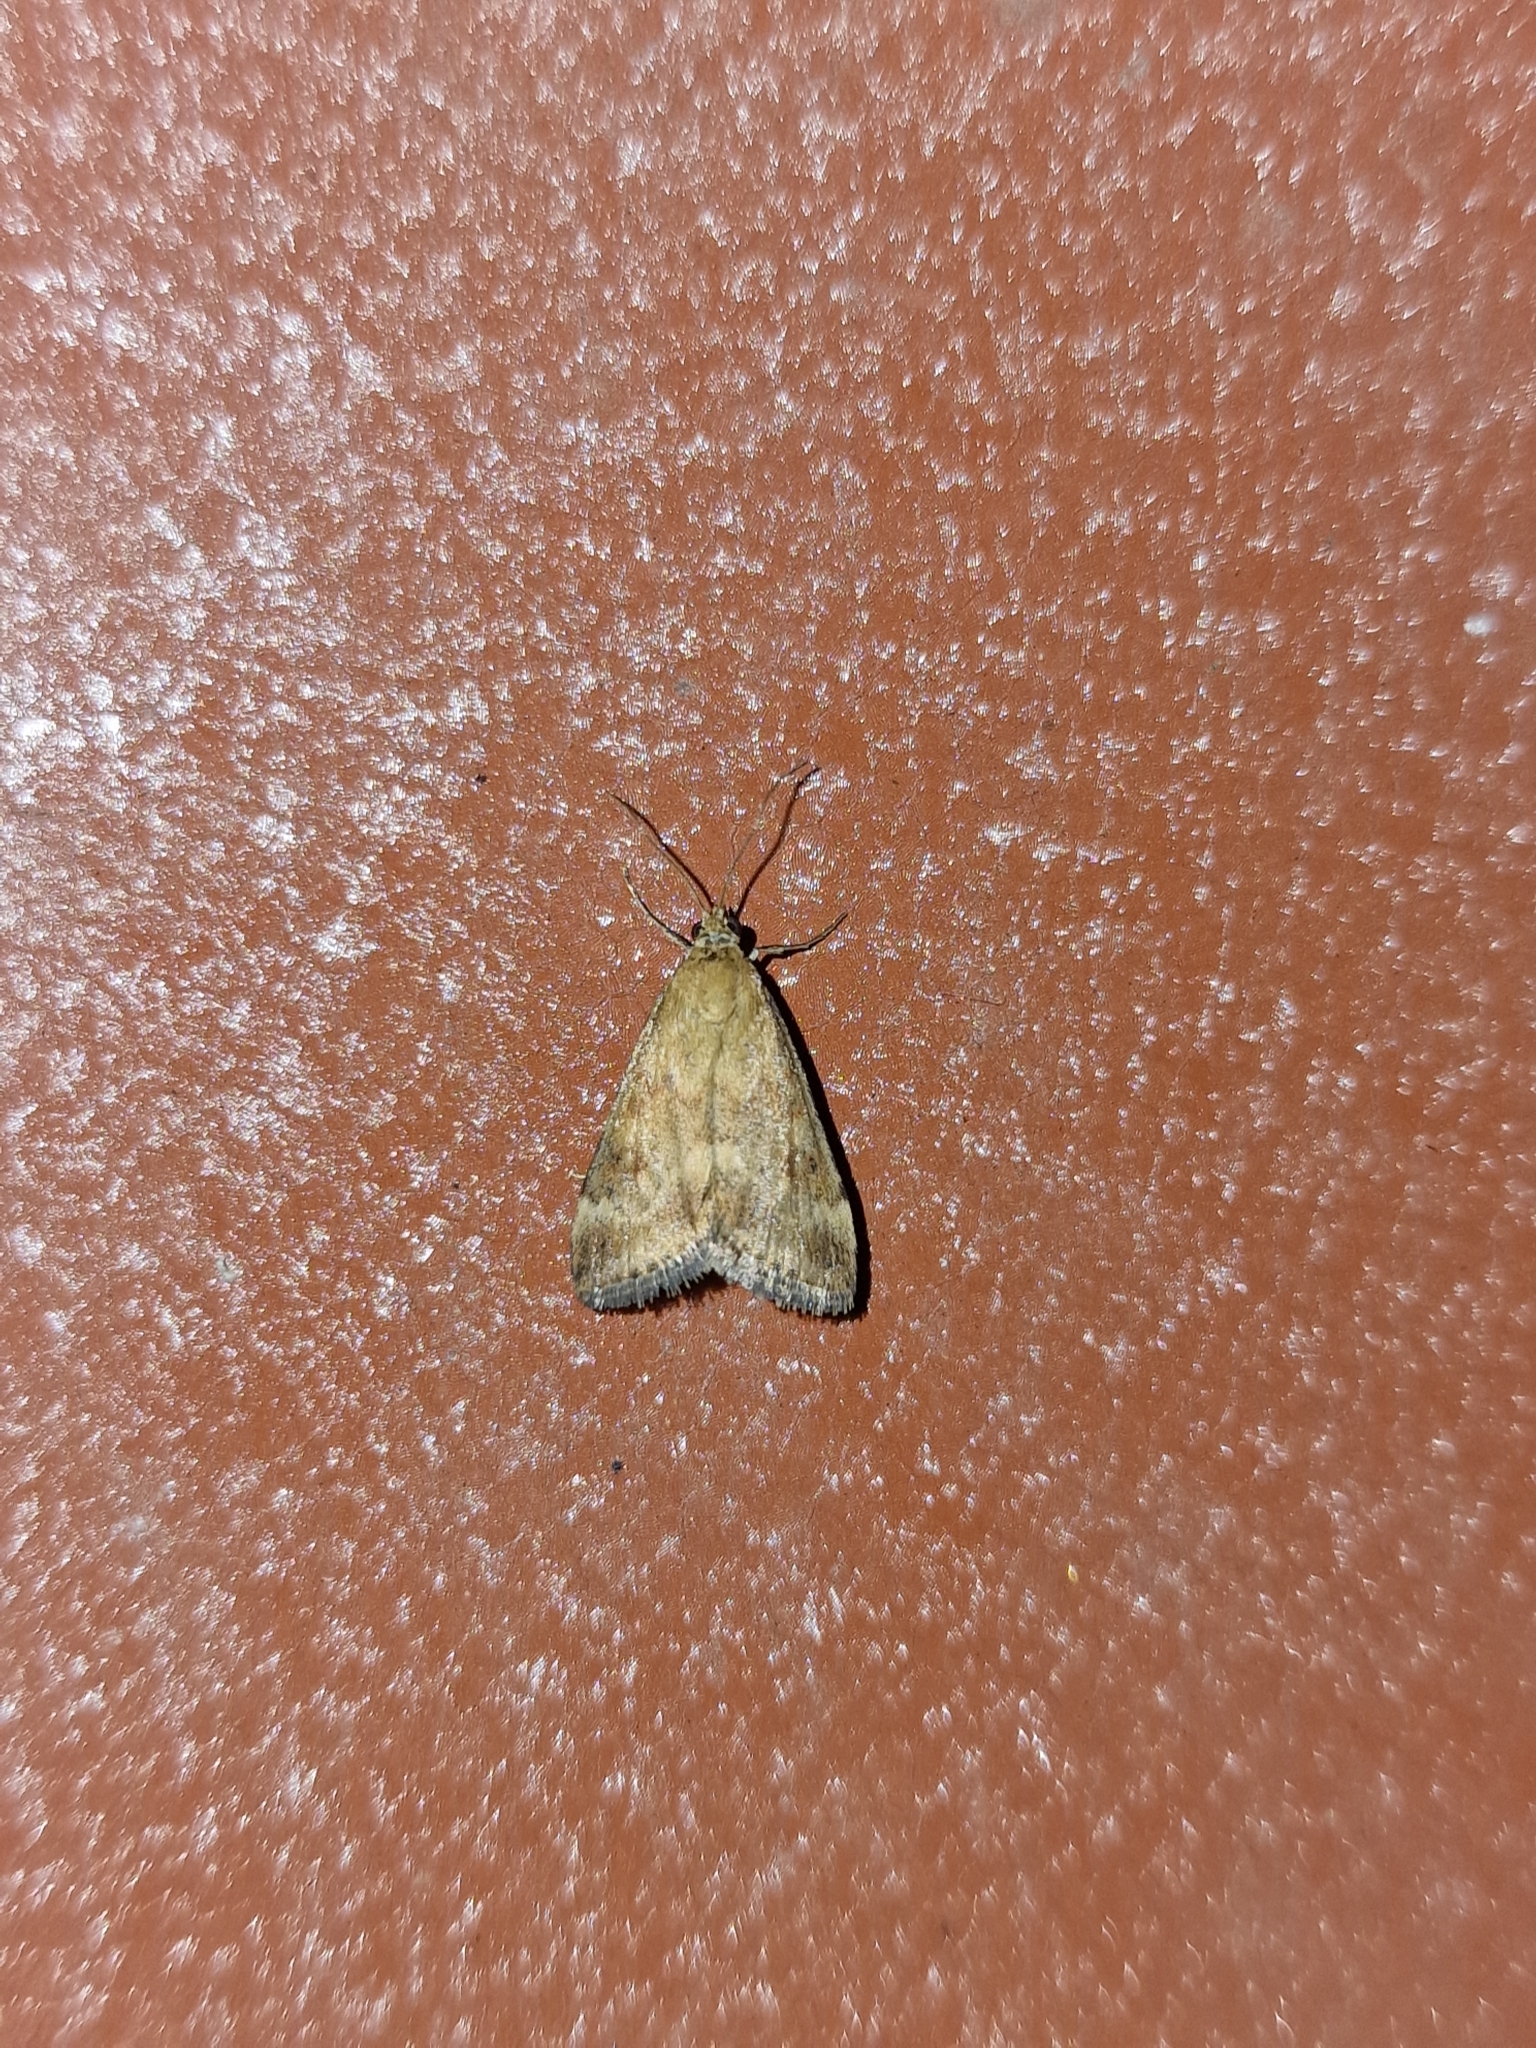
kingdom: Animalia
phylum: Arthropoda
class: Insecta
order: Lepidoptera
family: Crambidae
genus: Pyrausta
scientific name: Pyrausta despicata
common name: Straw-barred pearl
